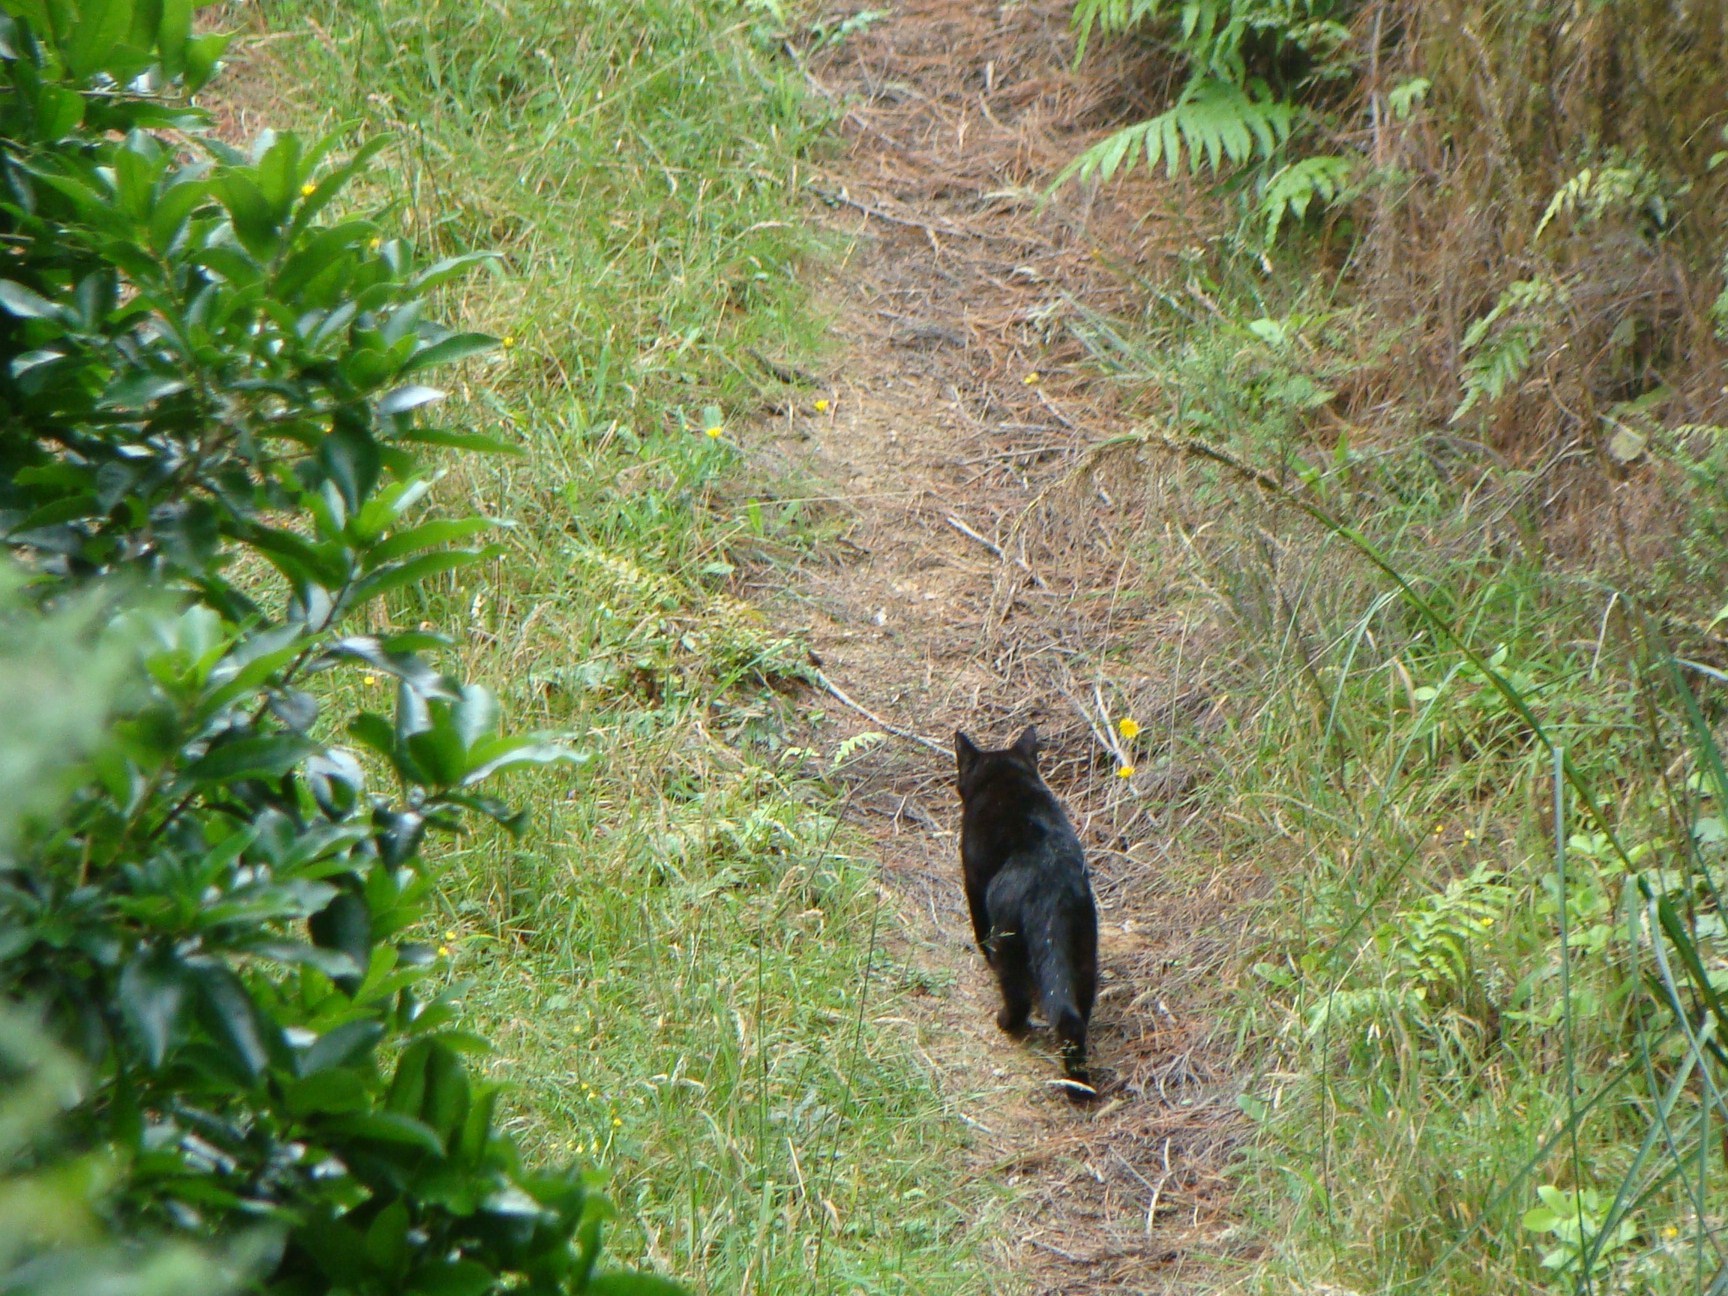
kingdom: Animalia
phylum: Chordata
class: Mammalia
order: Carnivora
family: Felidae
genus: Felis
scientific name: Felis catus
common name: Domestic cat
